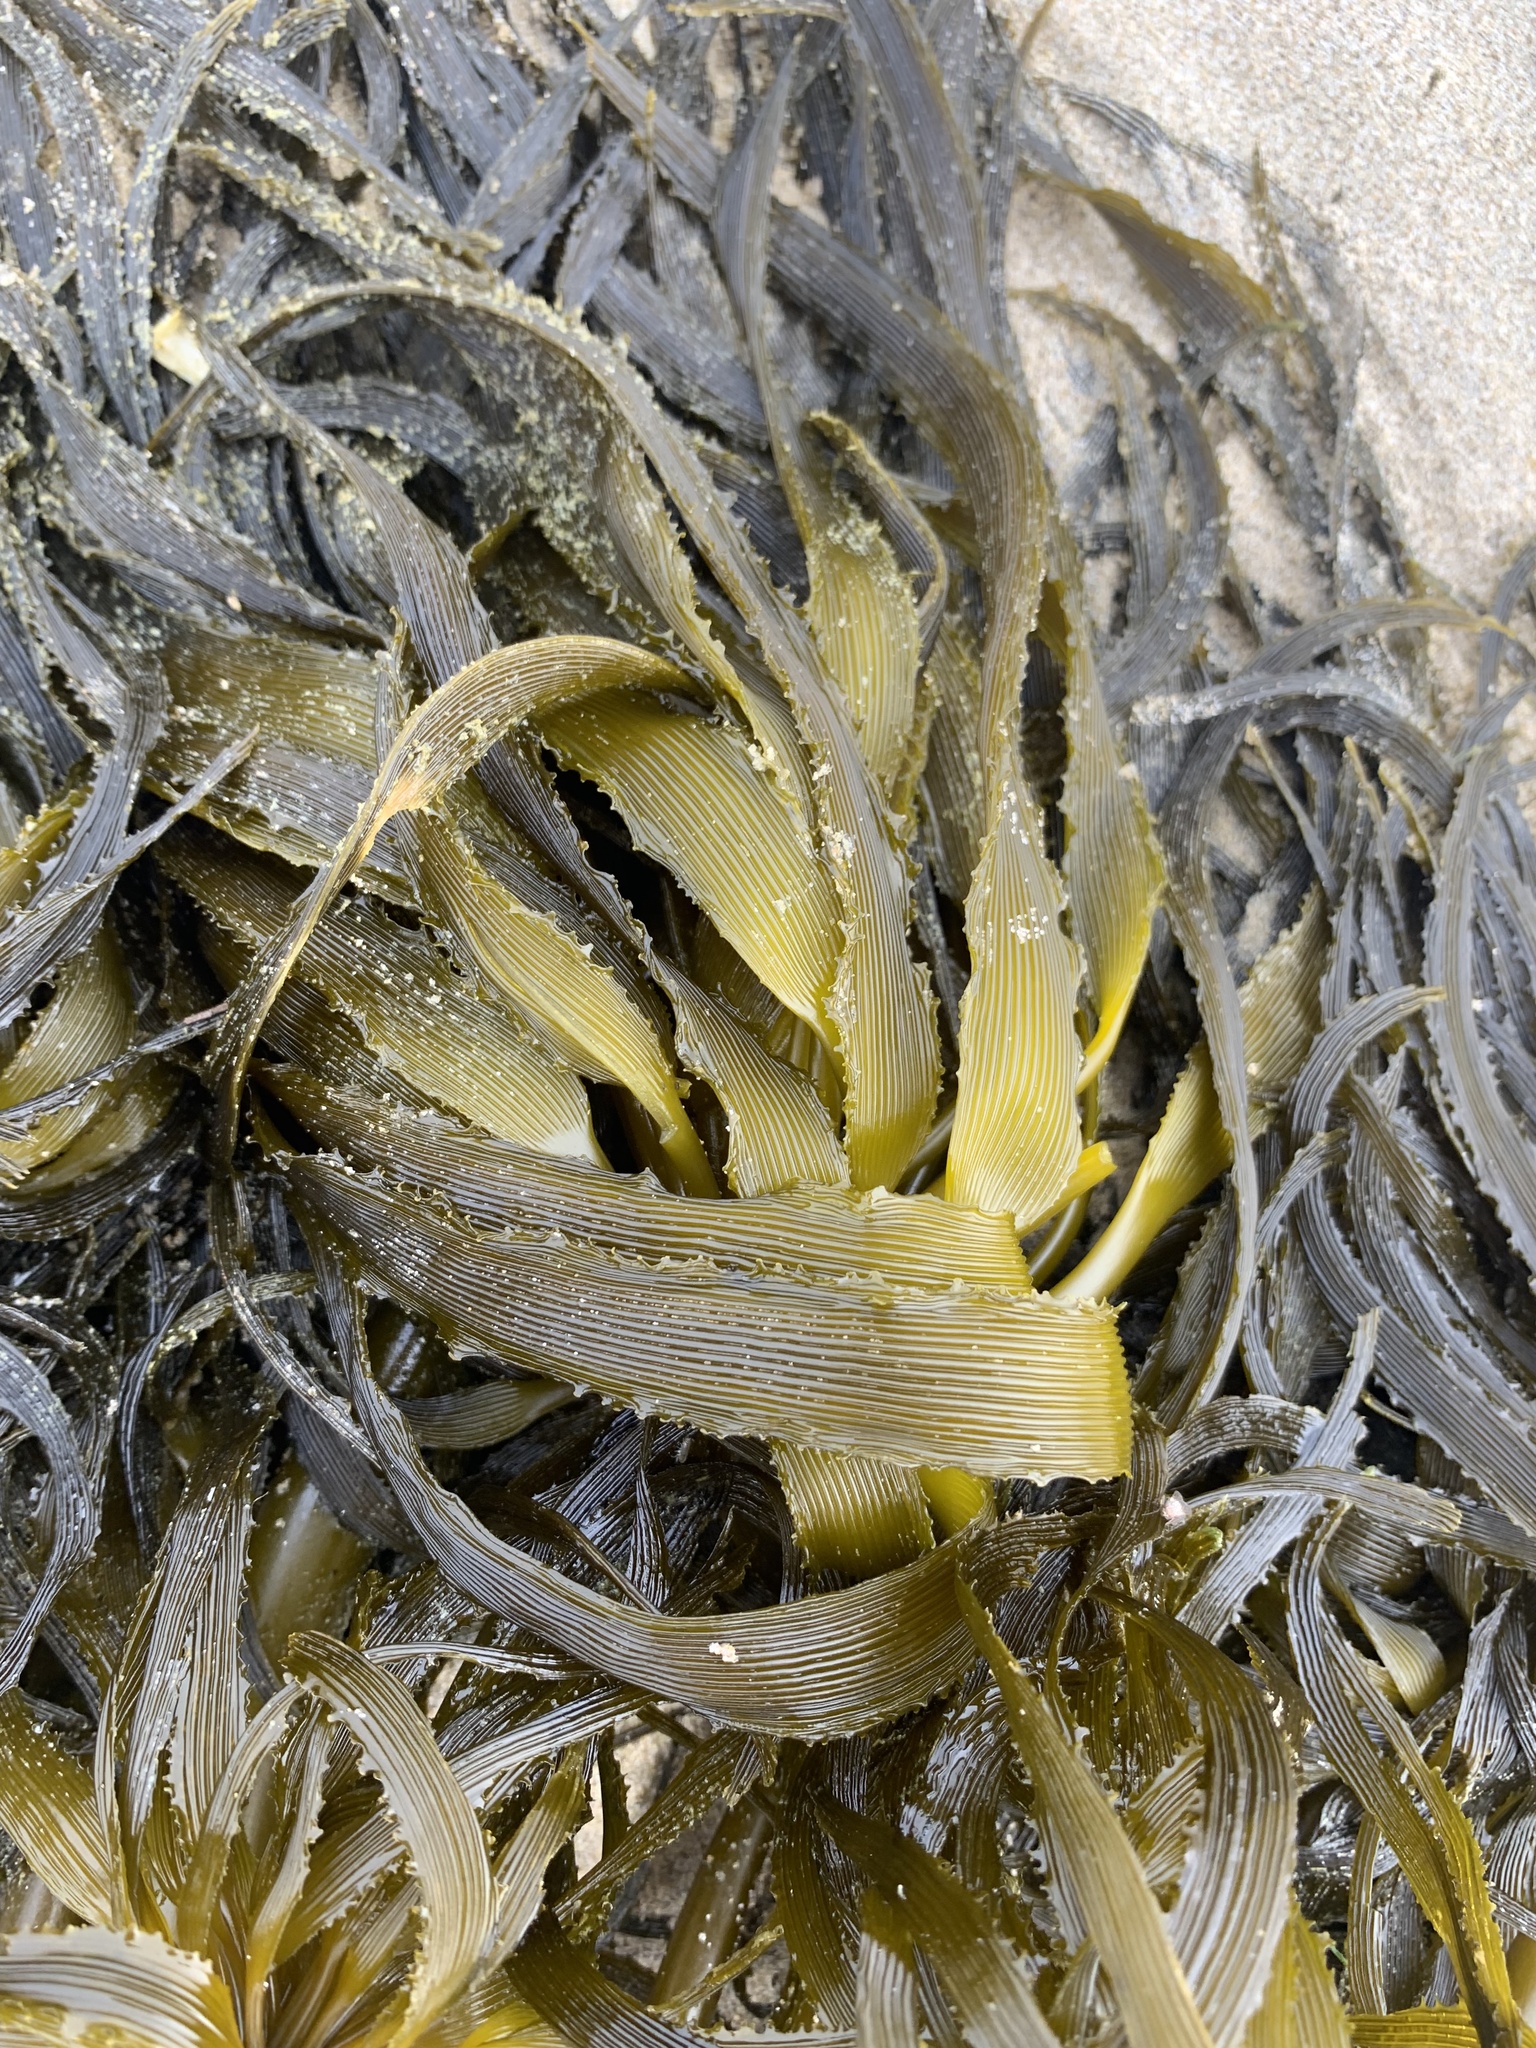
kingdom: Chromista
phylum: Ochrophyta
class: Phaeophyceae
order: Laminariales
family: Laminariaceae
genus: Postelsia
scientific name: Postelsia palmiformis
